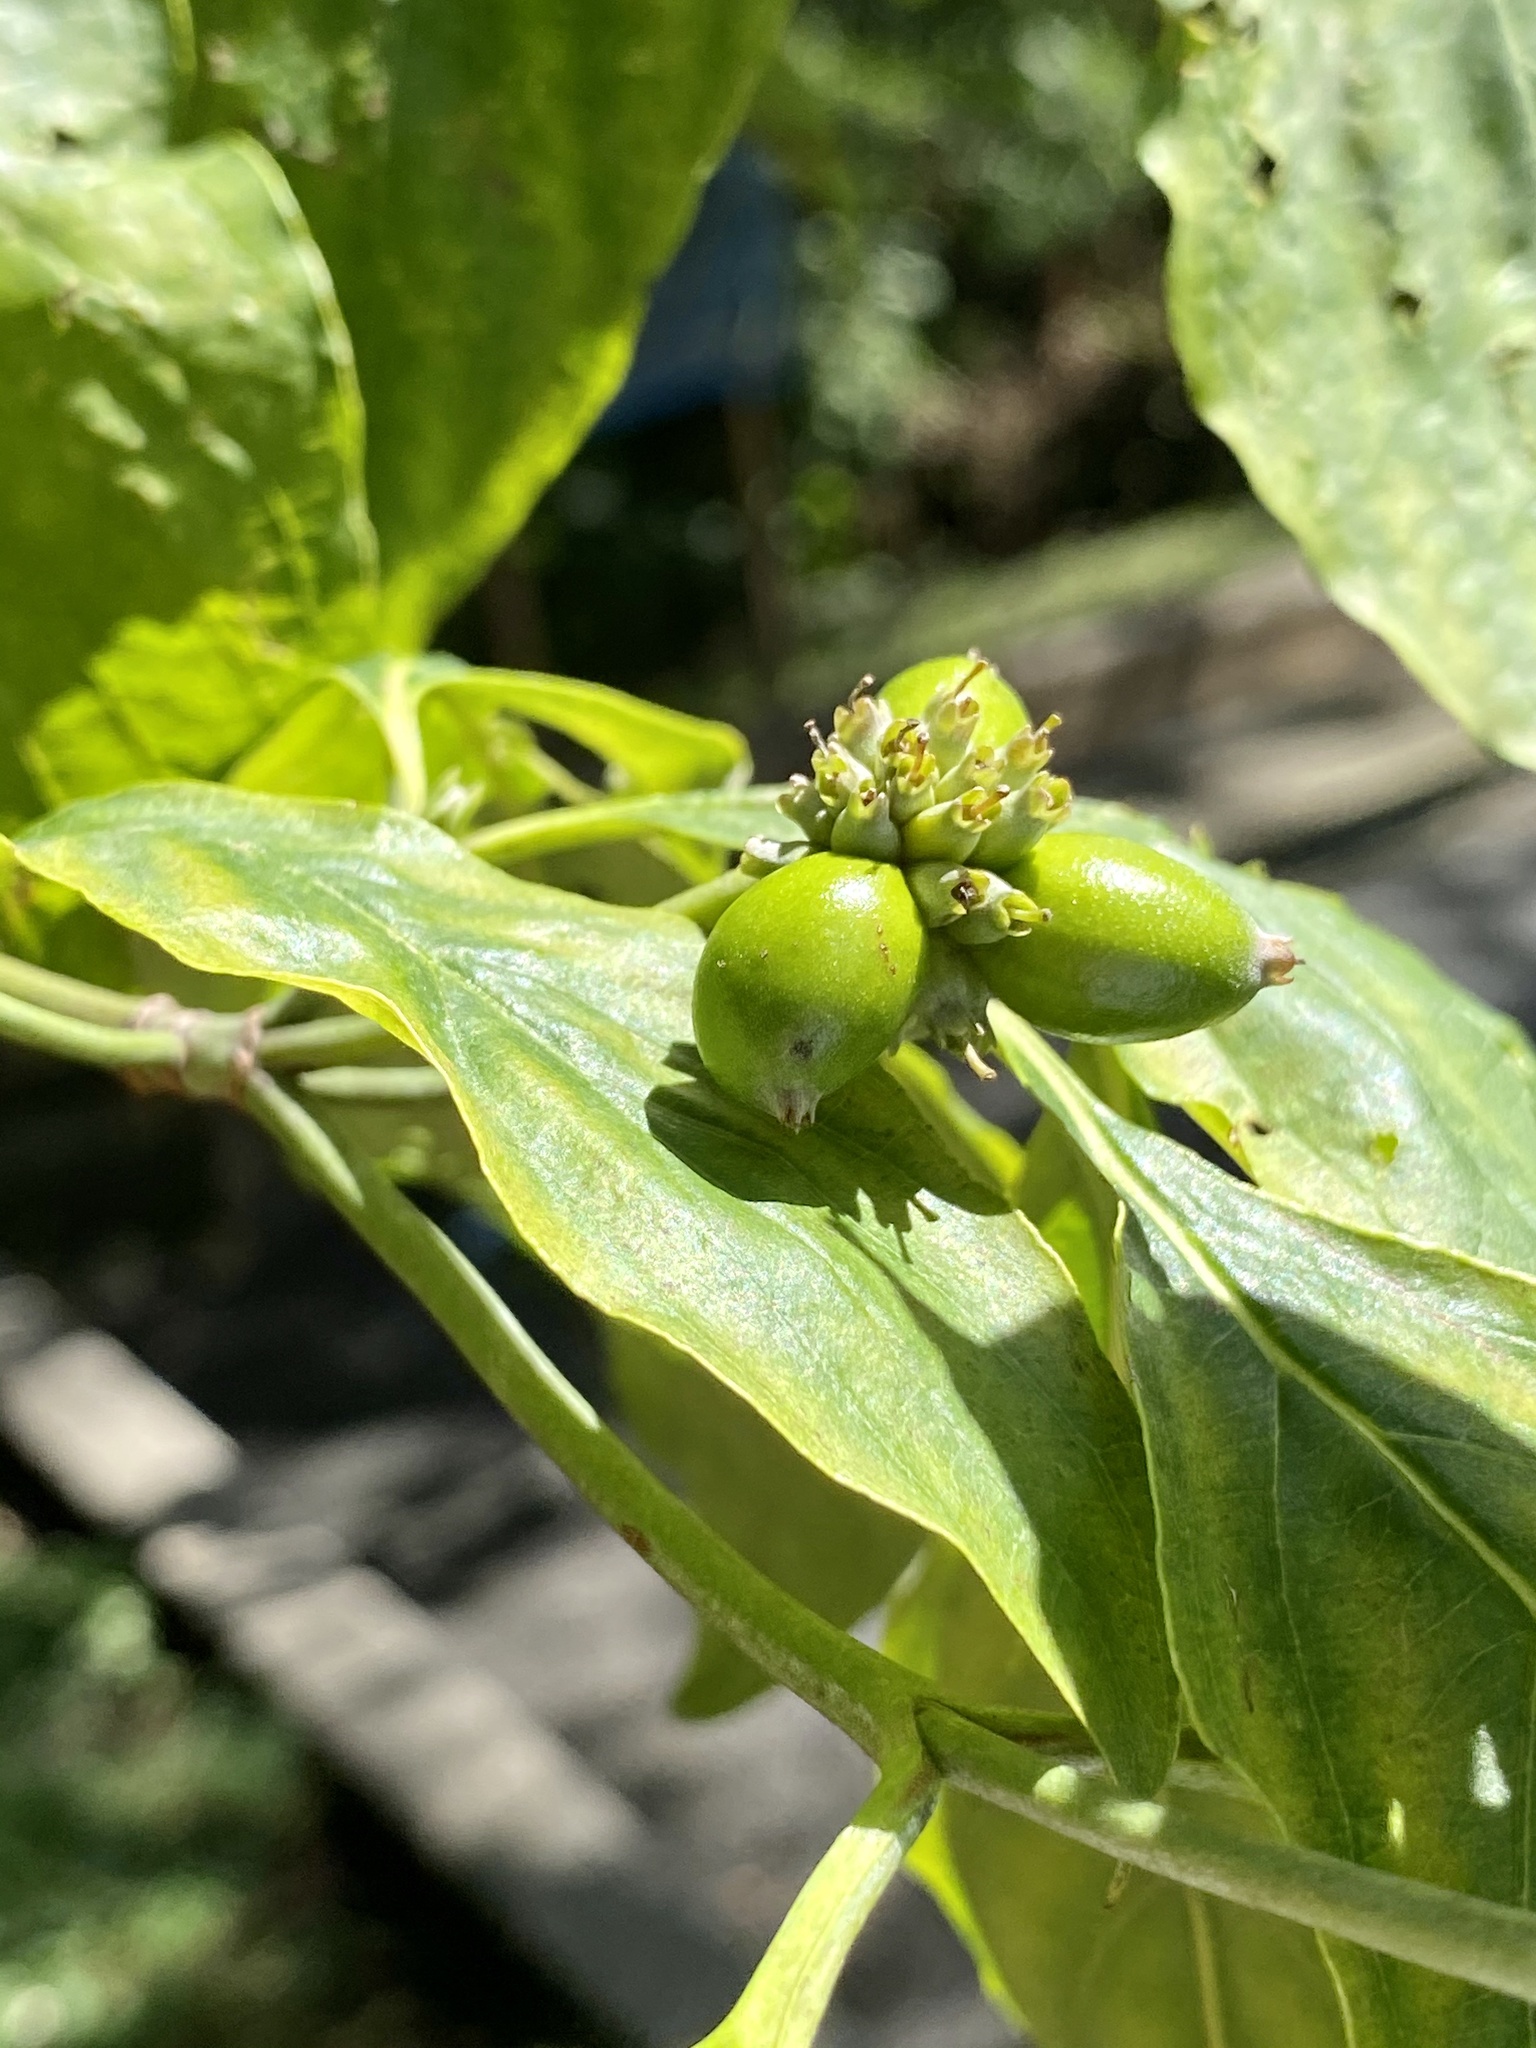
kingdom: Plantae
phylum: Tracheophyta
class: Magnoliopsida
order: Cornales
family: Cornaceae
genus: Cornus
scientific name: Cornus florida
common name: Flowering dogwood
